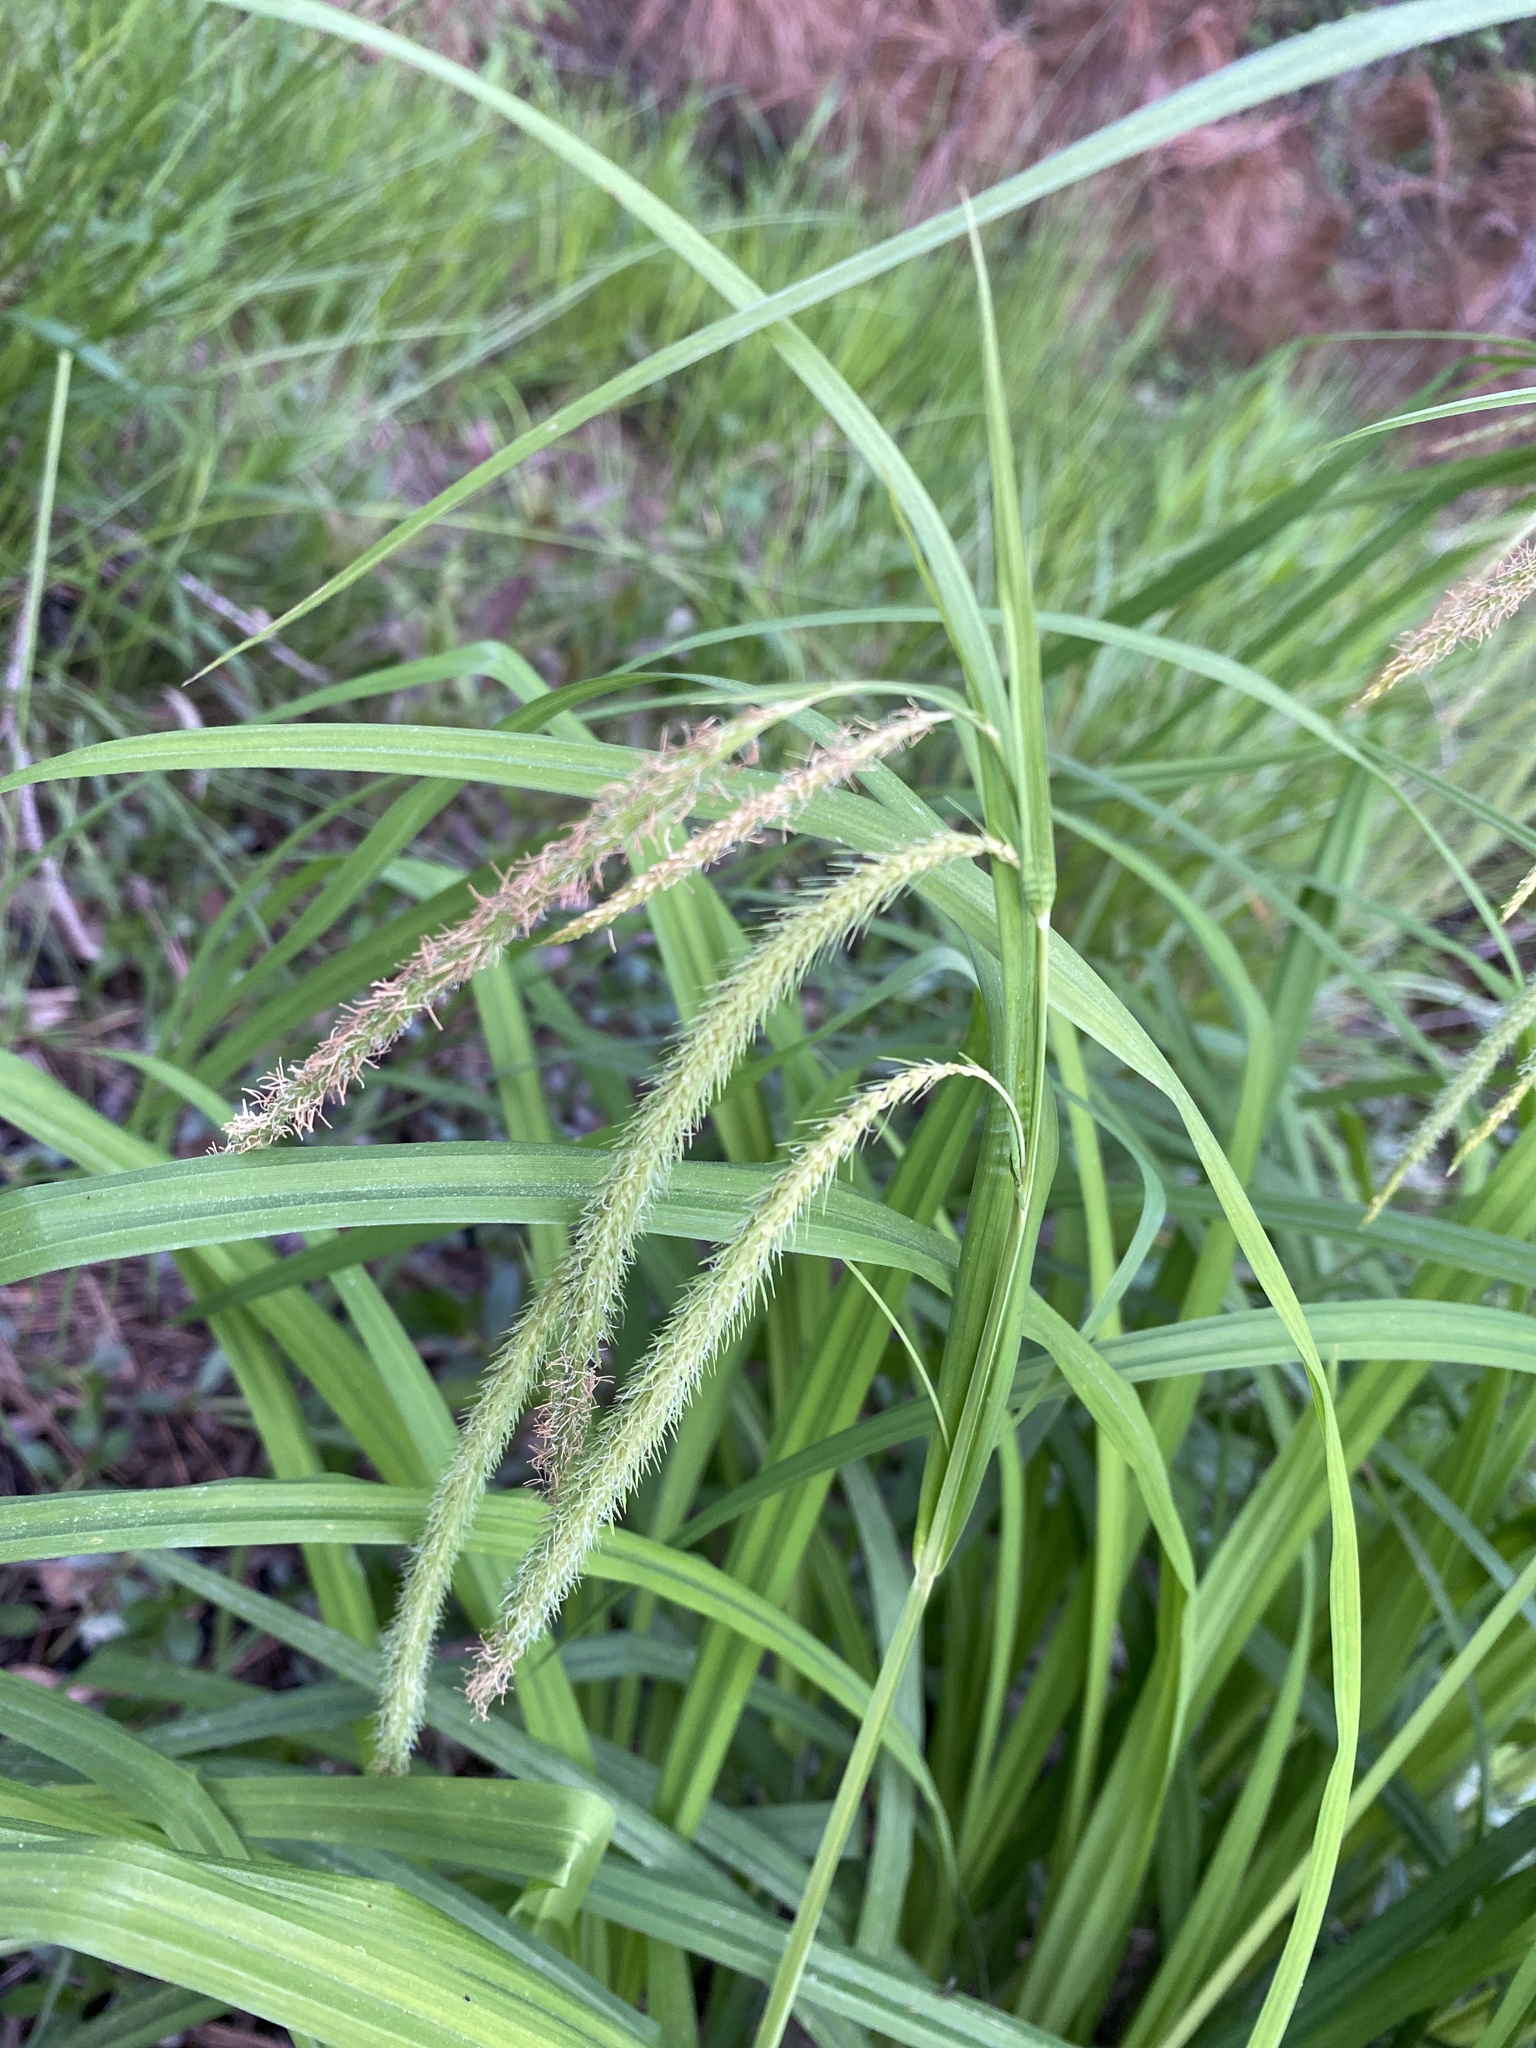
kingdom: Plantae
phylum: Tracheophyta
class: Liliopsida
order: Poales
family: Cyperaceae
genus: Carex
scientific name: Carex crinita
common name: Fringed sedge
